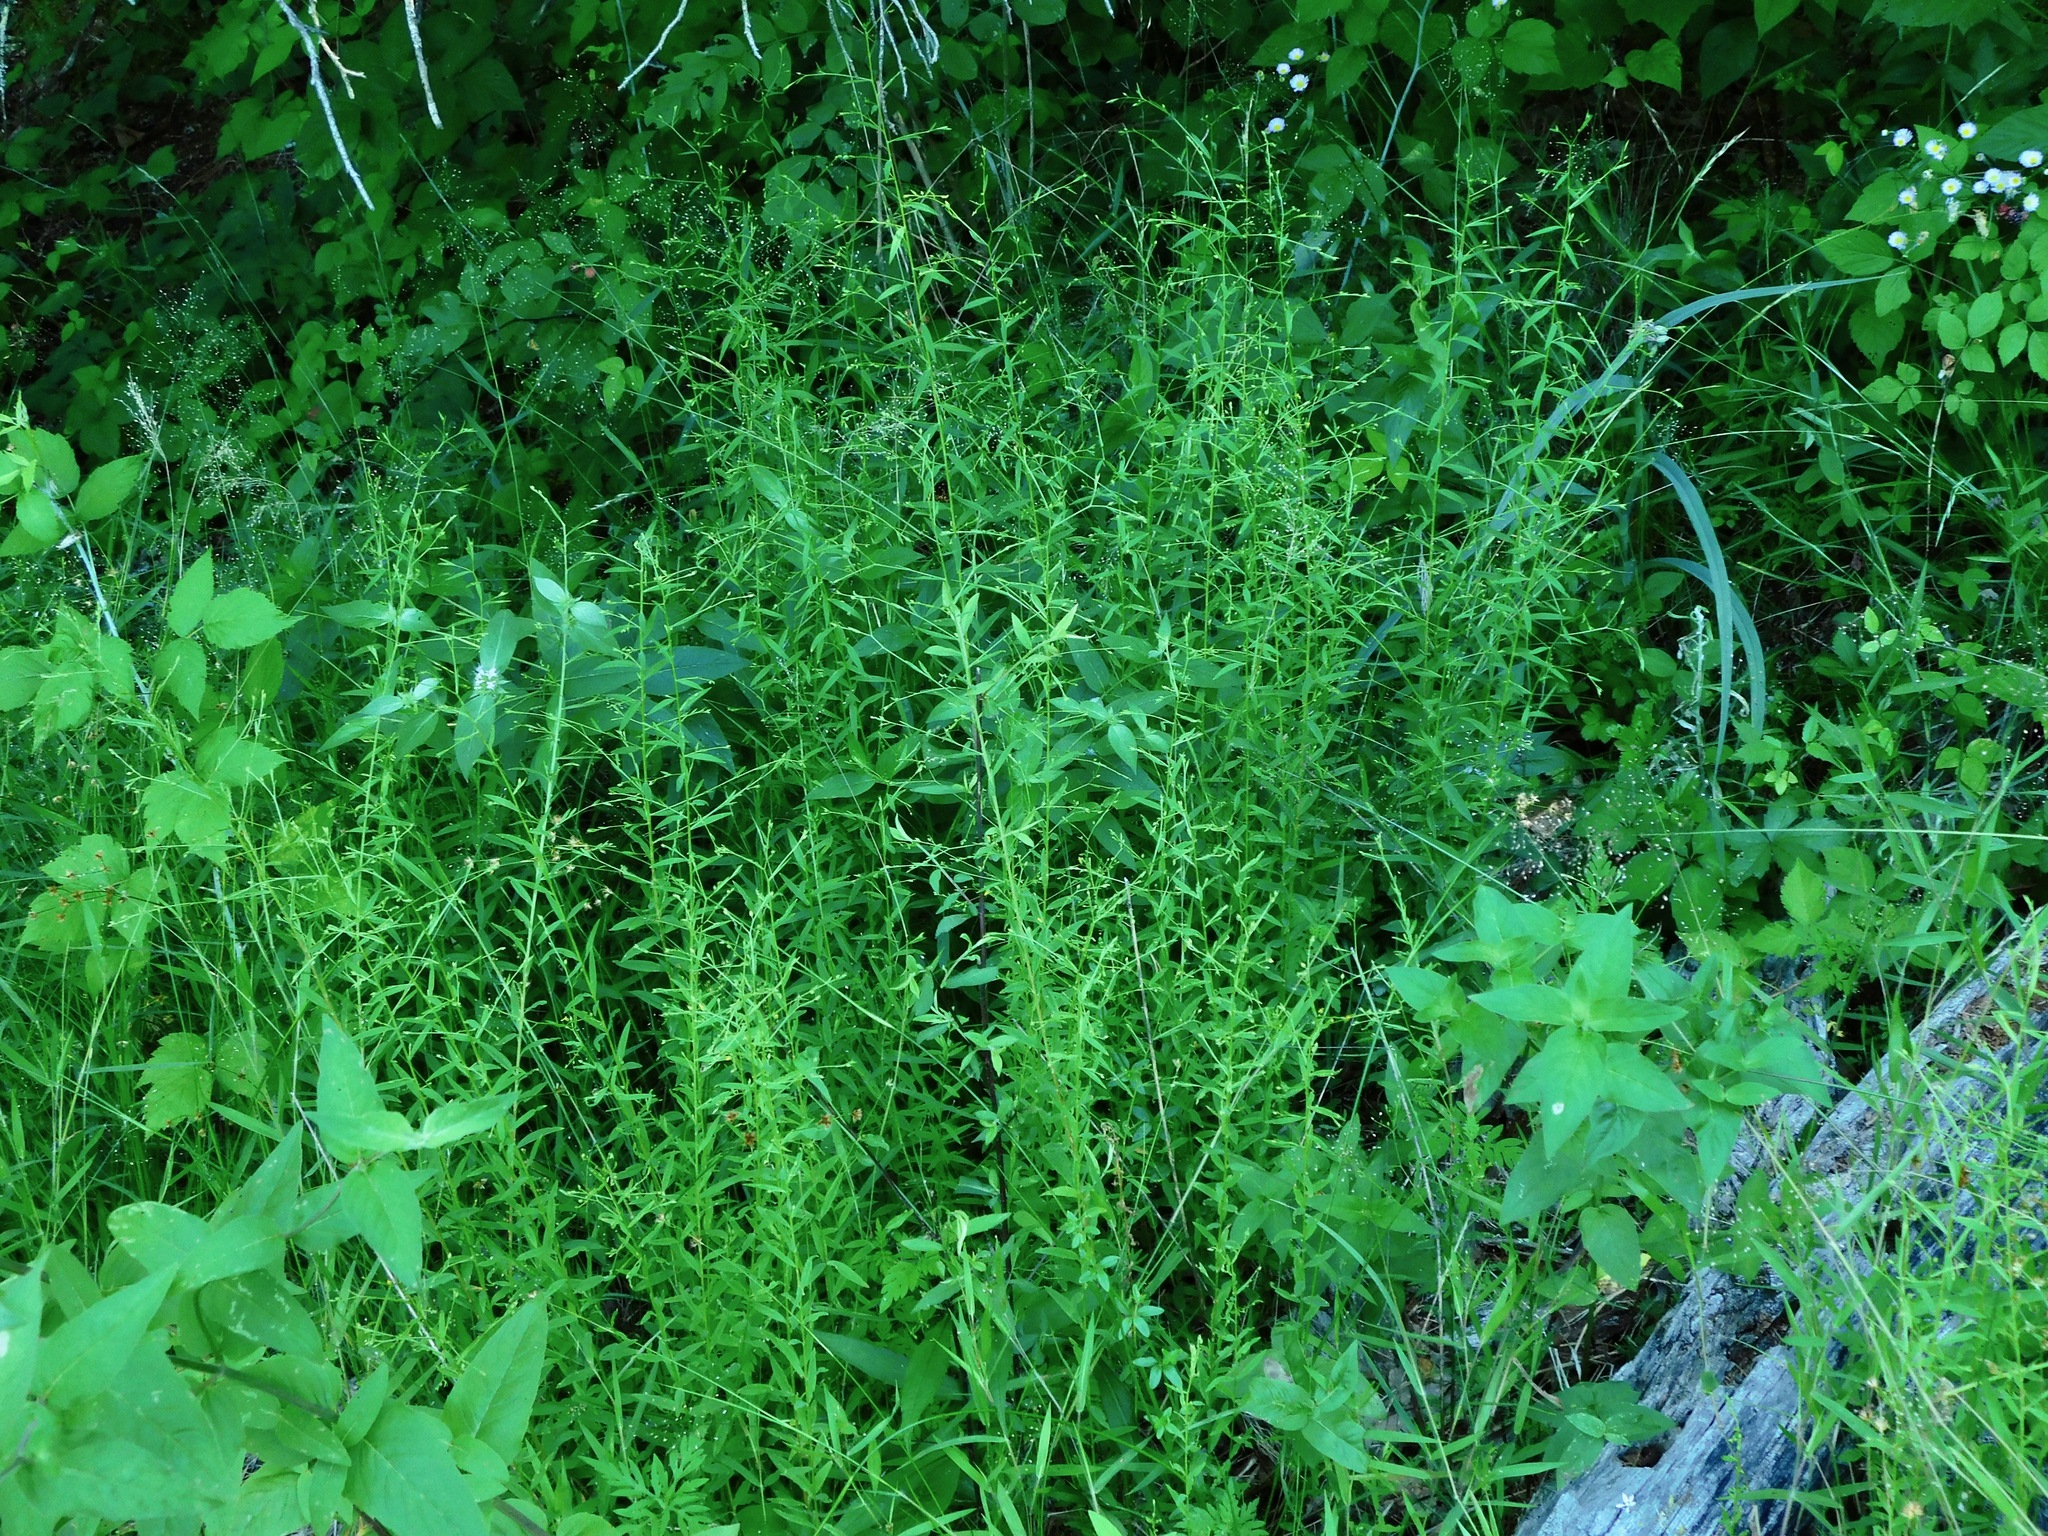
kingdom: Plantae
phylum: Tracheophyta
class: Magnoliopsida
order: Malpighiales
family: Linaceae
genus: Linum
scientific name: Linum virginianum
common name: Slender yellow flax
